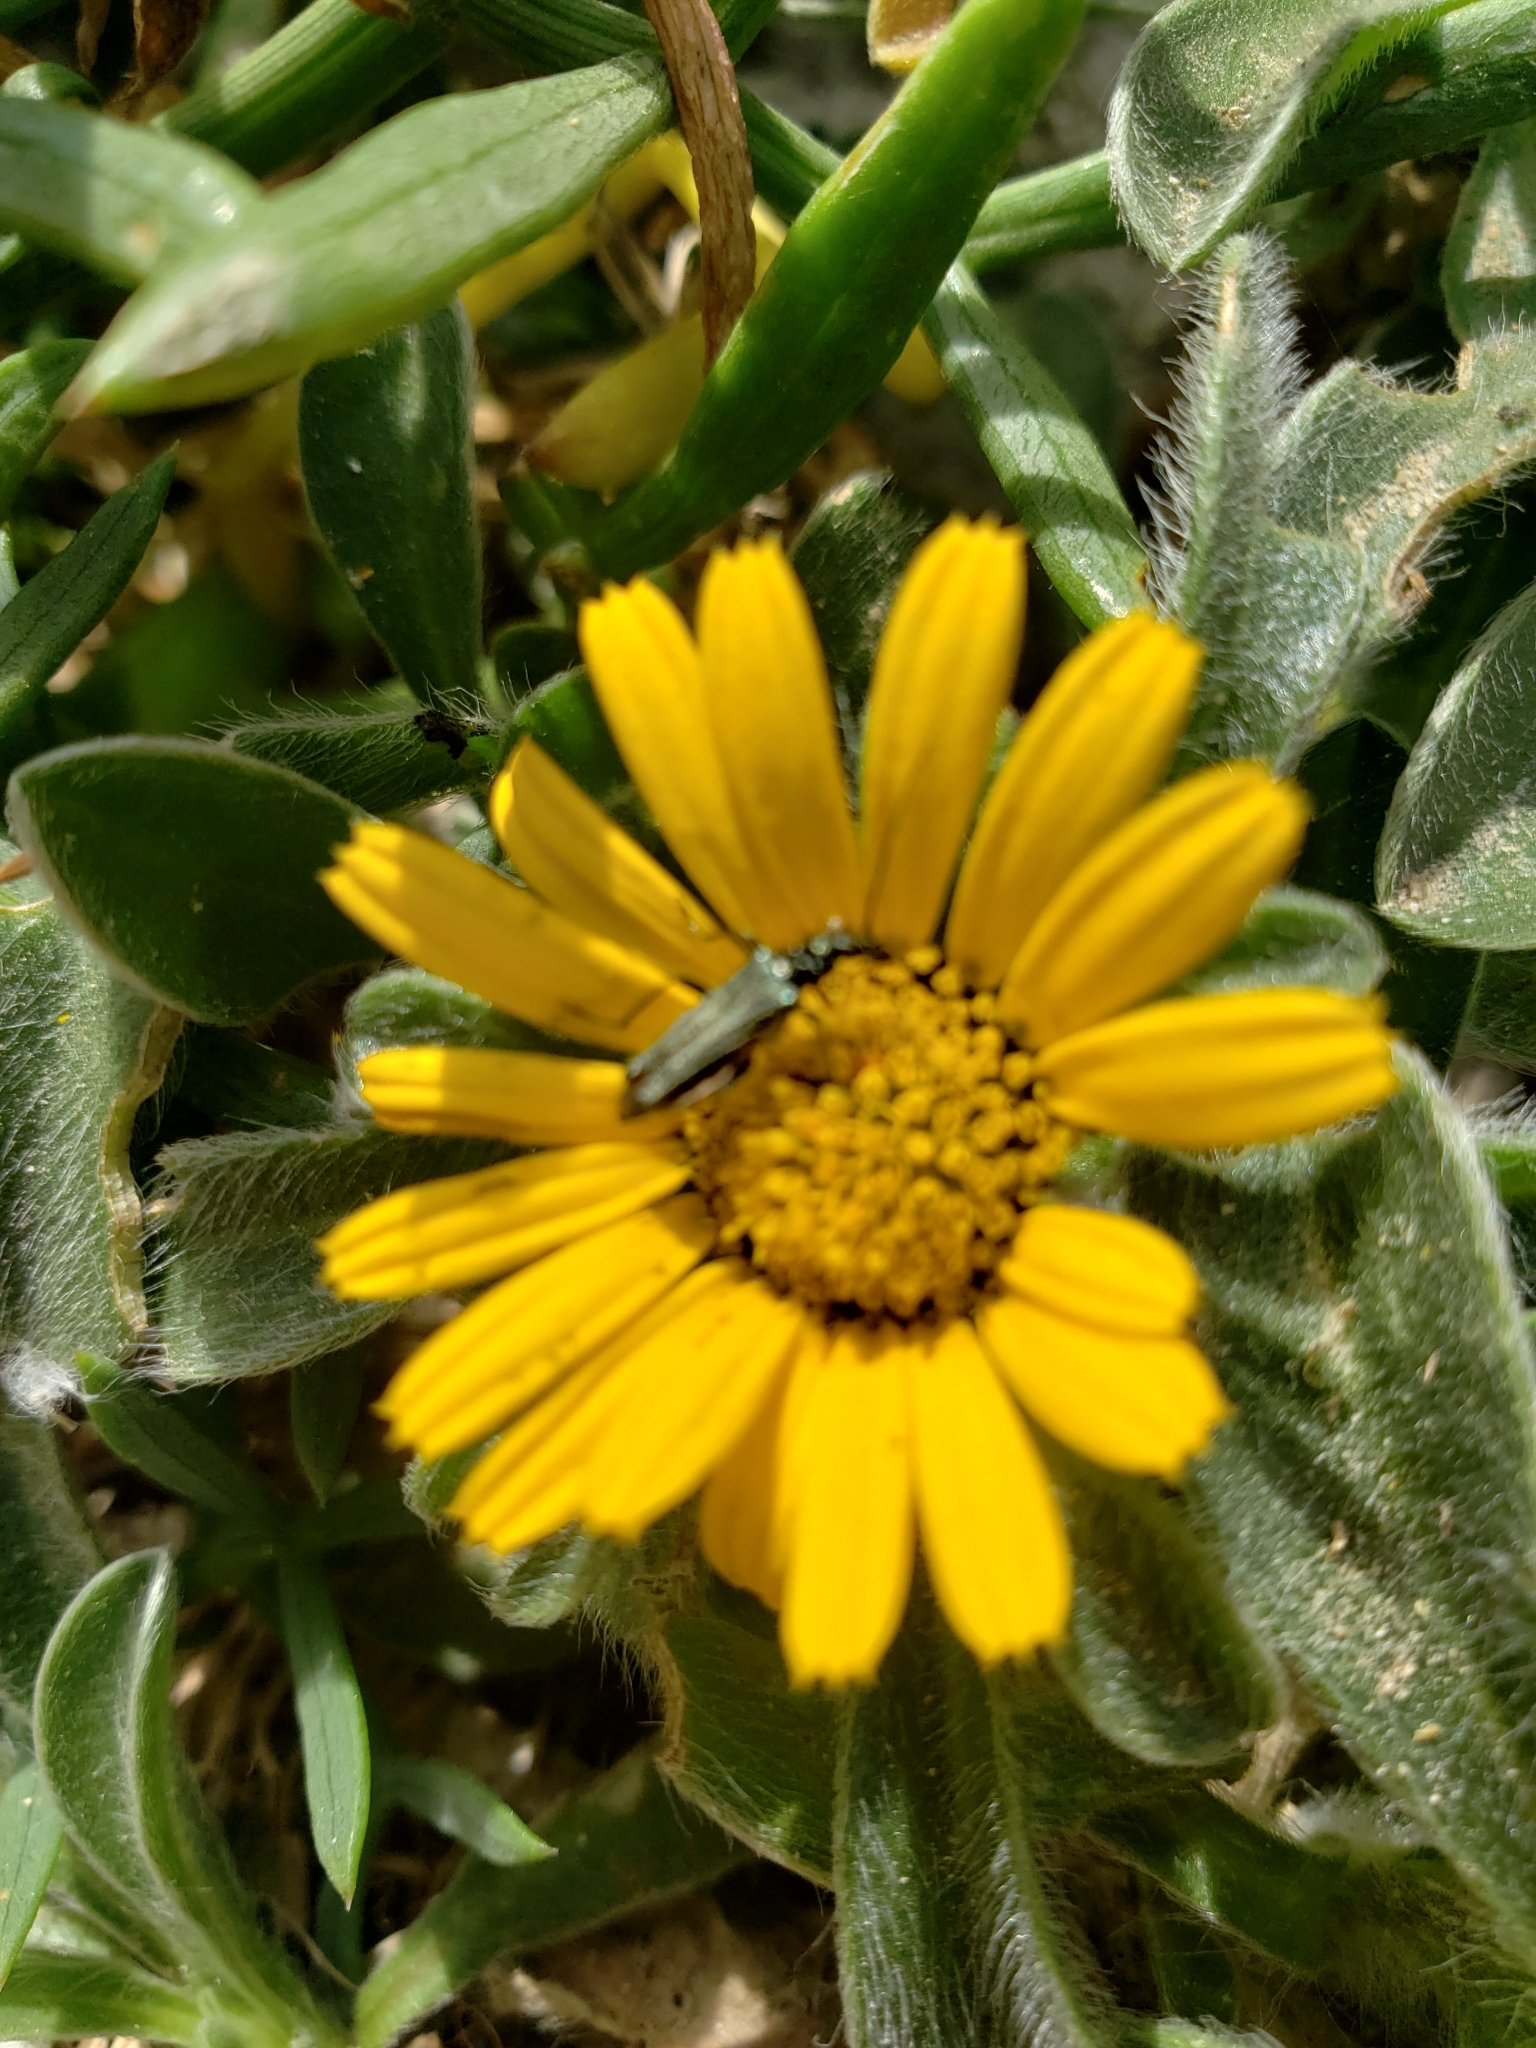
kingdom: Animalia
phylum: Arthropoda
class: Insecta
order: Coleoptera
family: Oedemeridae
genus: Oedemera
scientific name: Oedemera flavipes
